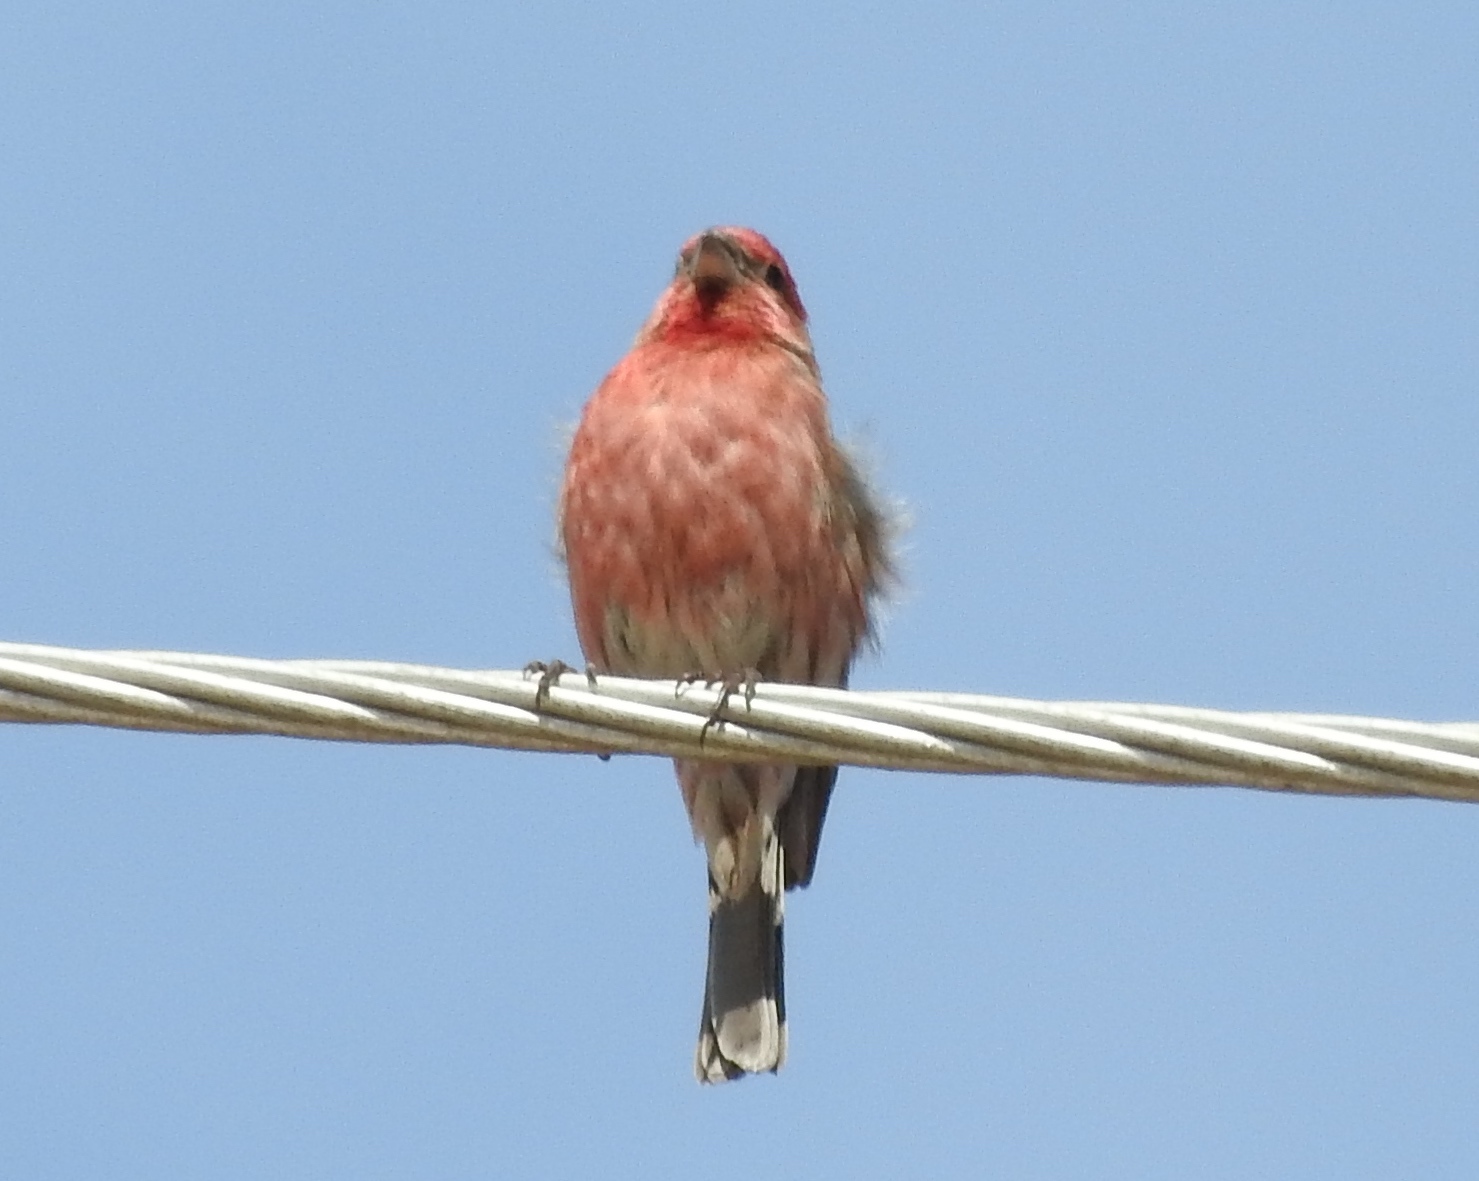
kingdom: Animalia
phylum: Chordata
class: Aves
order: Passeriformes
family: Fringillidae
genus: Haemorhous
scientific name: Haemorhous mexicanus
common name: House finch
